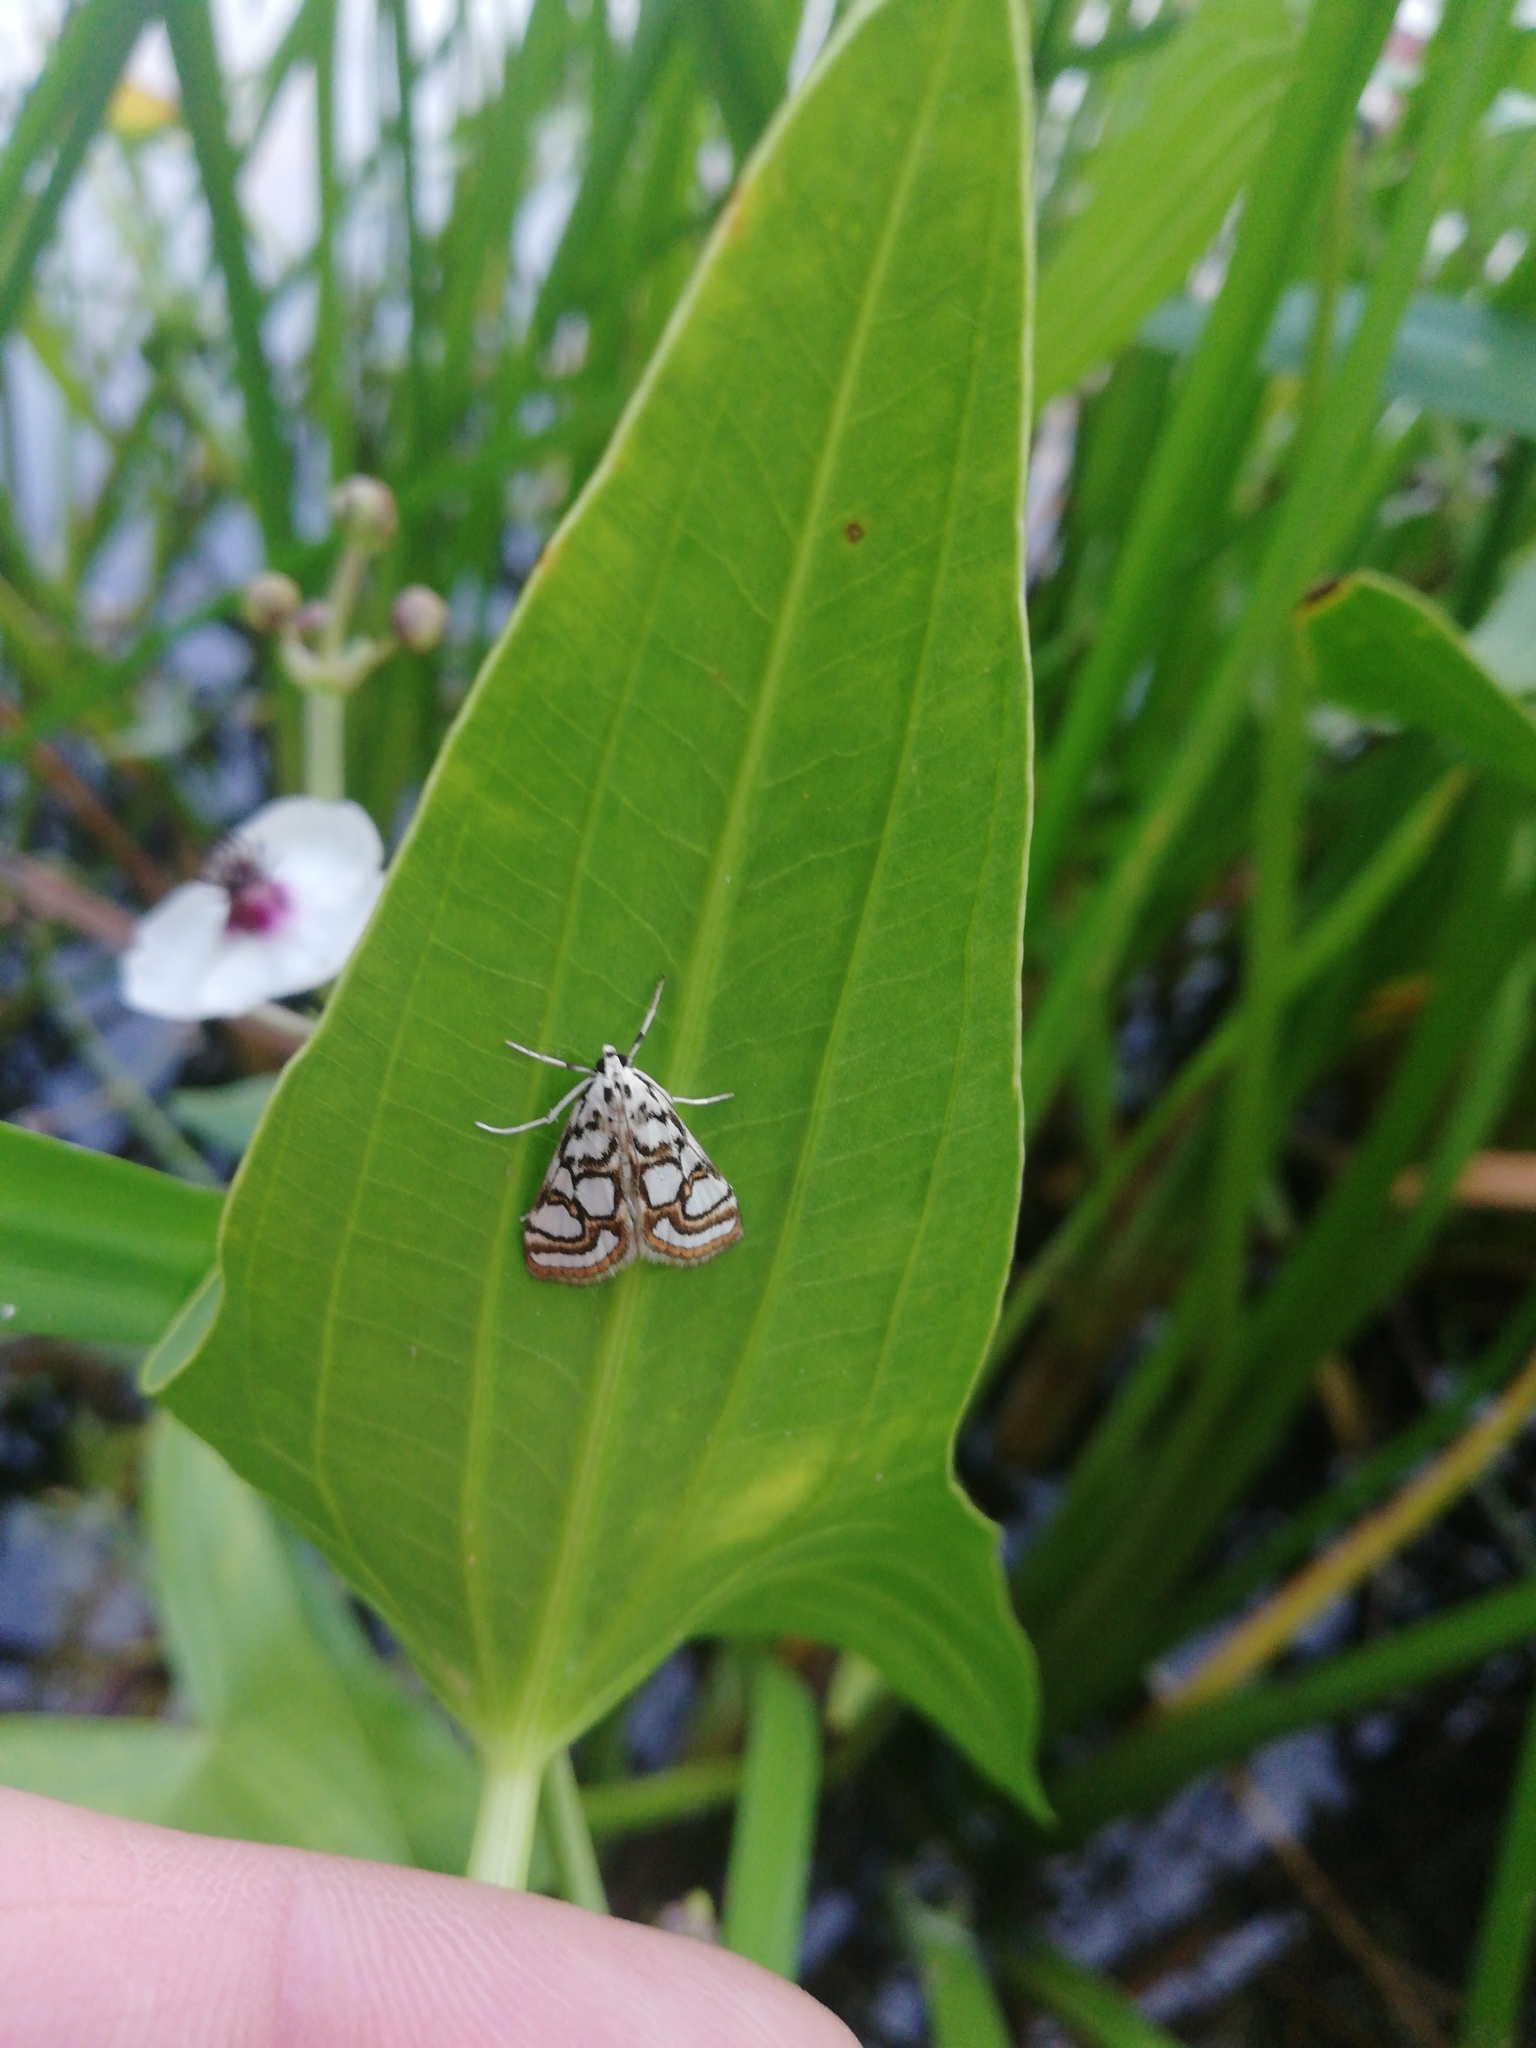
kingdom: Animalia
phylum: Arthropoda
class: Insecta
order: Lepidoptera
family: Crambidae
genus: Nymphula
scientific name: Nymphula nitidulata
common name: Beautiful china mark
